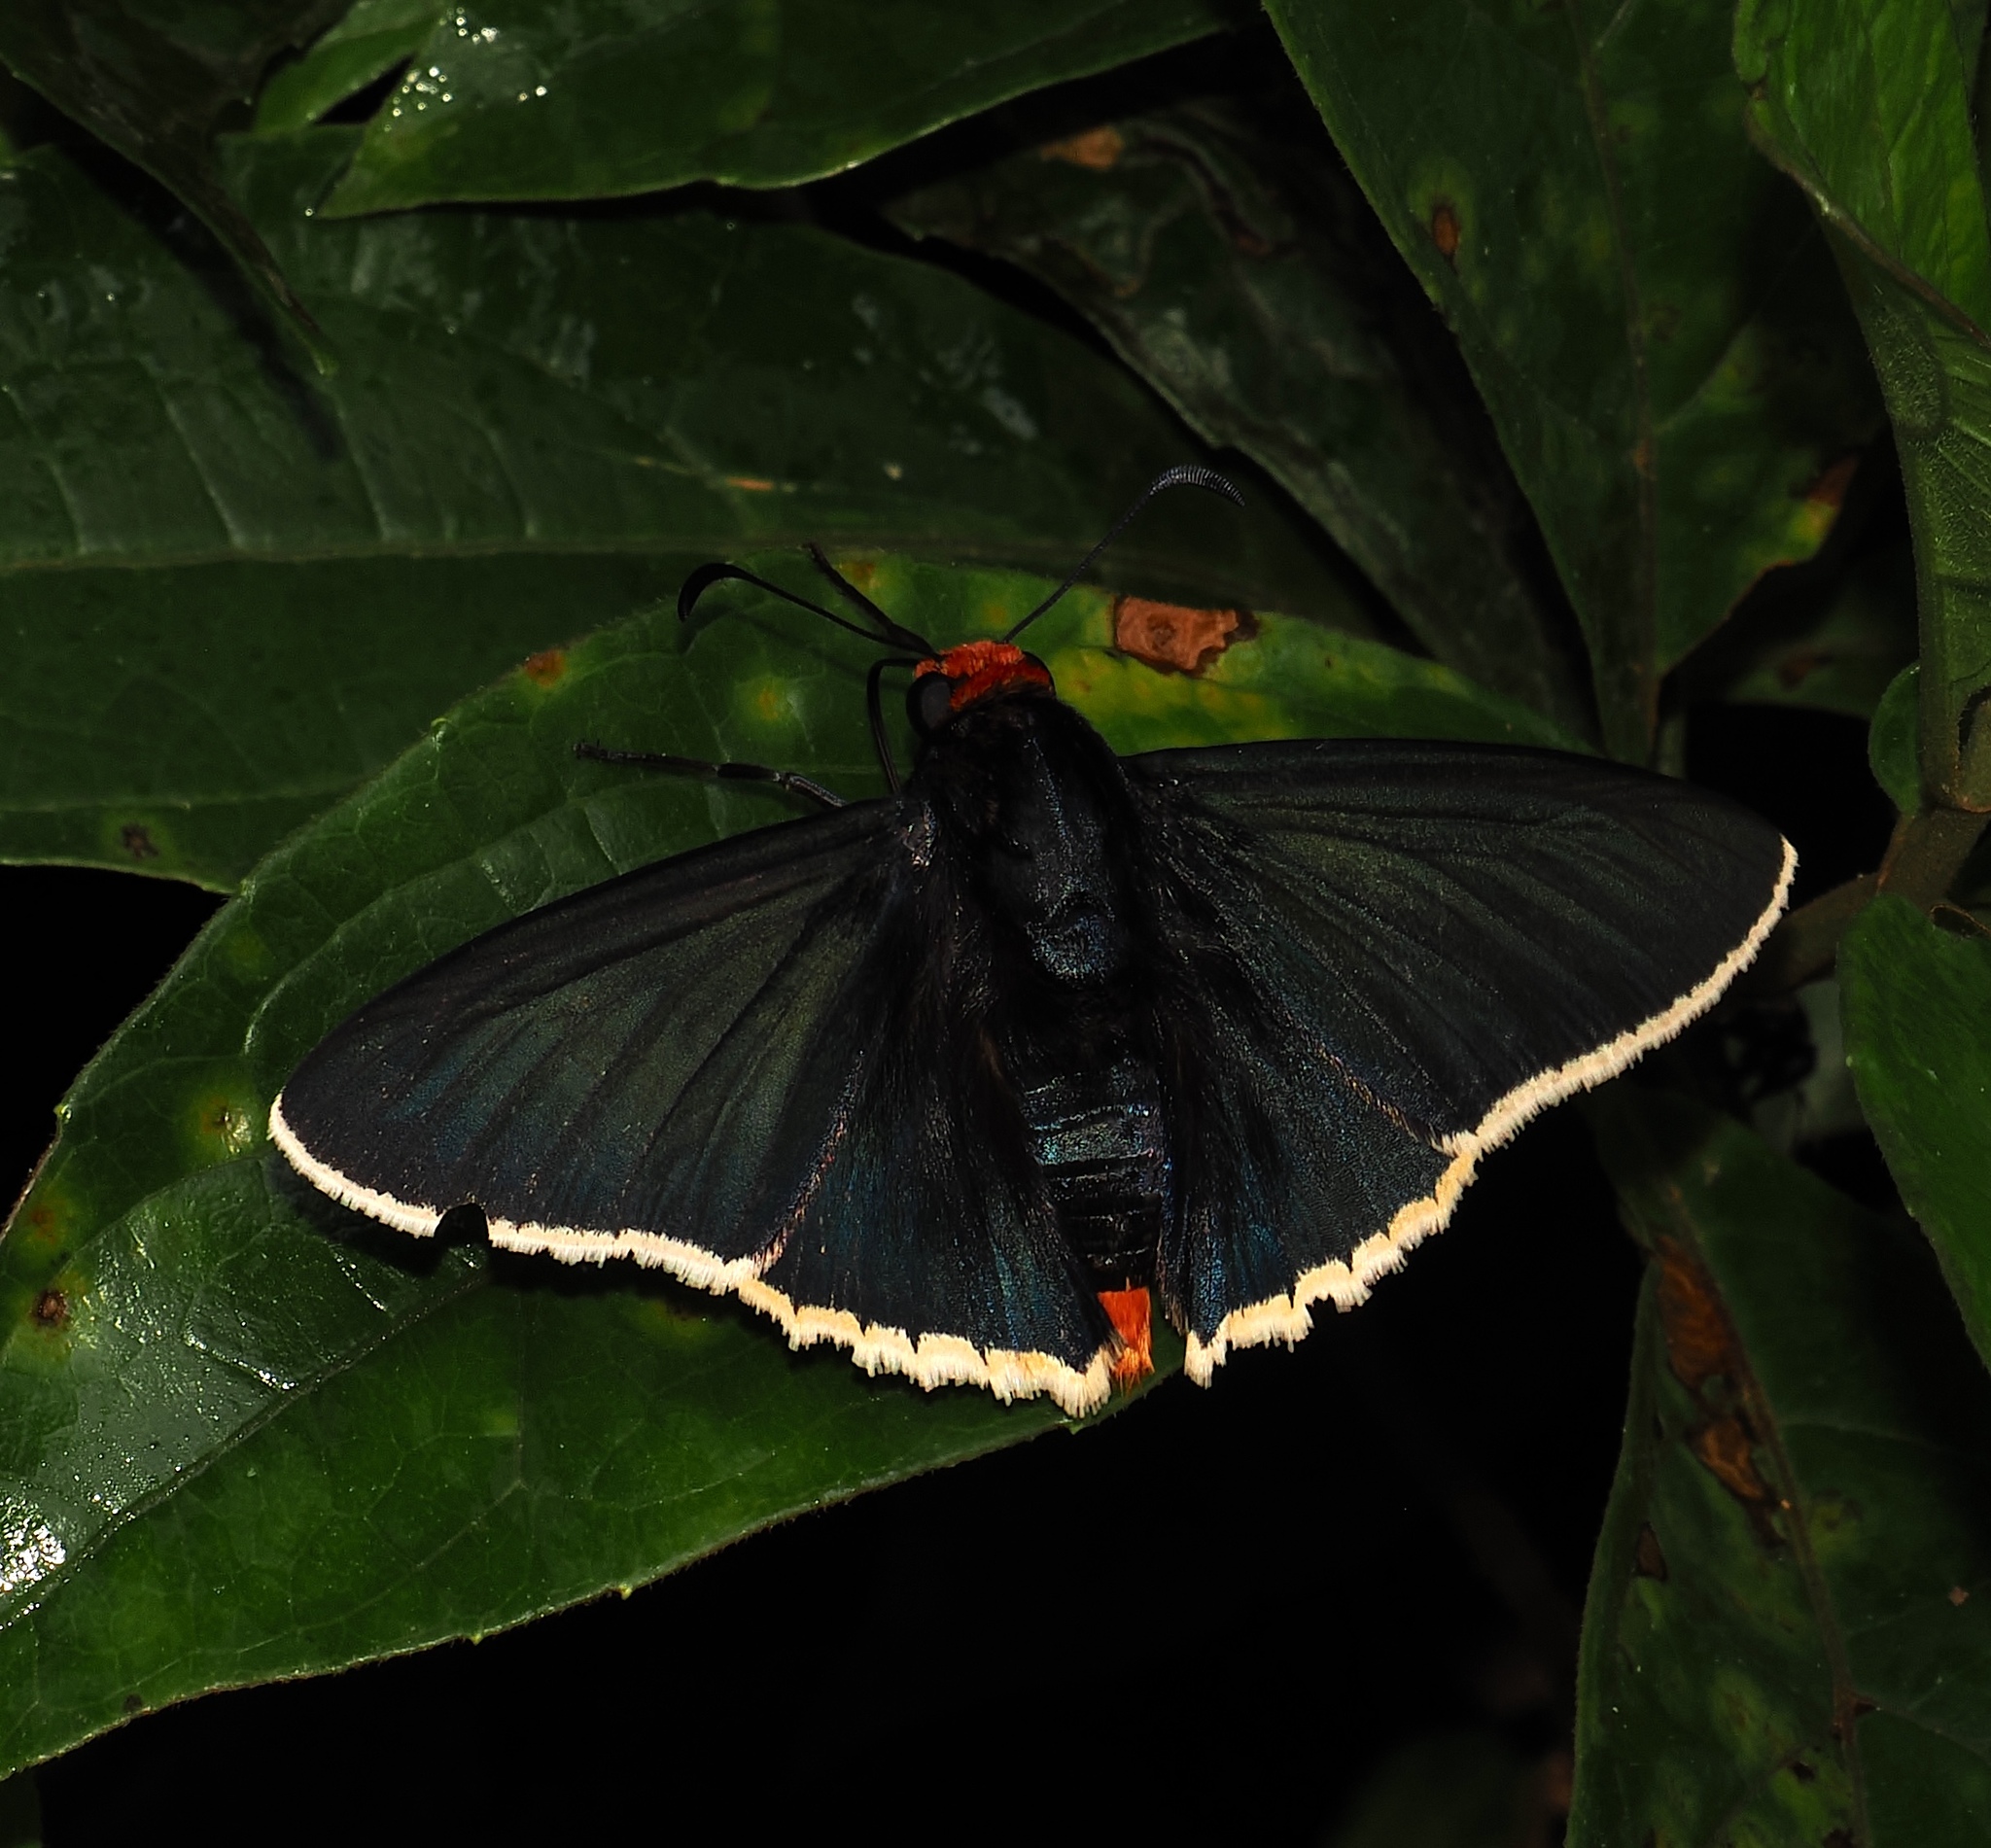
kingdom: Animalia
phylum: Arthropoda
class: Insecta
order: Lepidoptera
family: Hesperiidae
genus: Elbella
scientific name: Elbella
